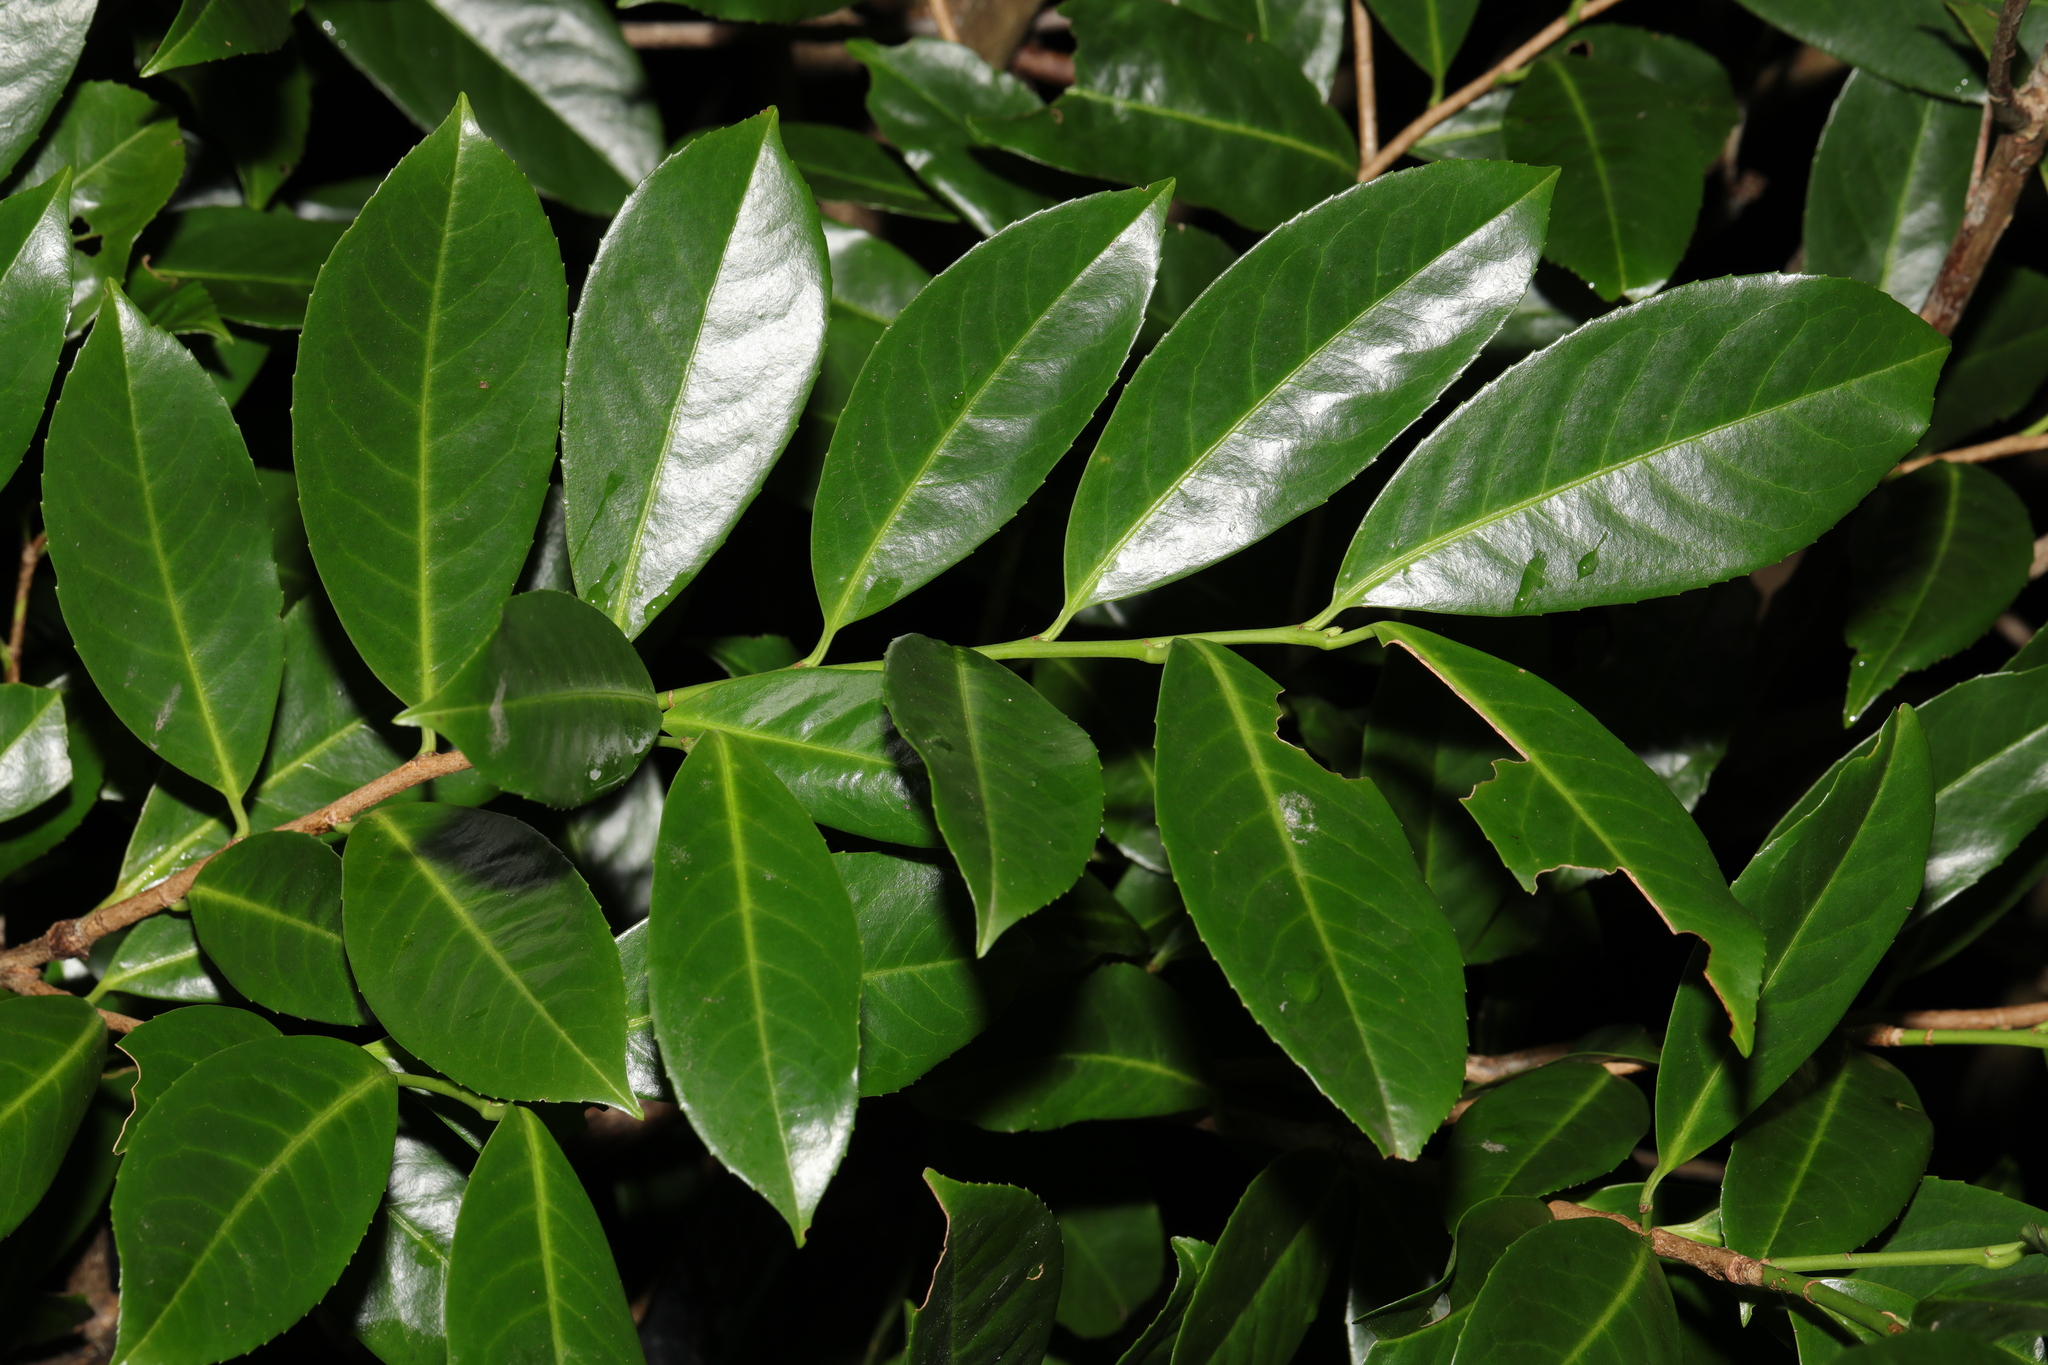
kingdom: Plantae
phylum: Tracheophyta
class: Magnoliopsida
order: Rosales
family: Rosaceae
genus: Prunus
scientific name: Prunus laurocerasus
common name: Cherry laurel
